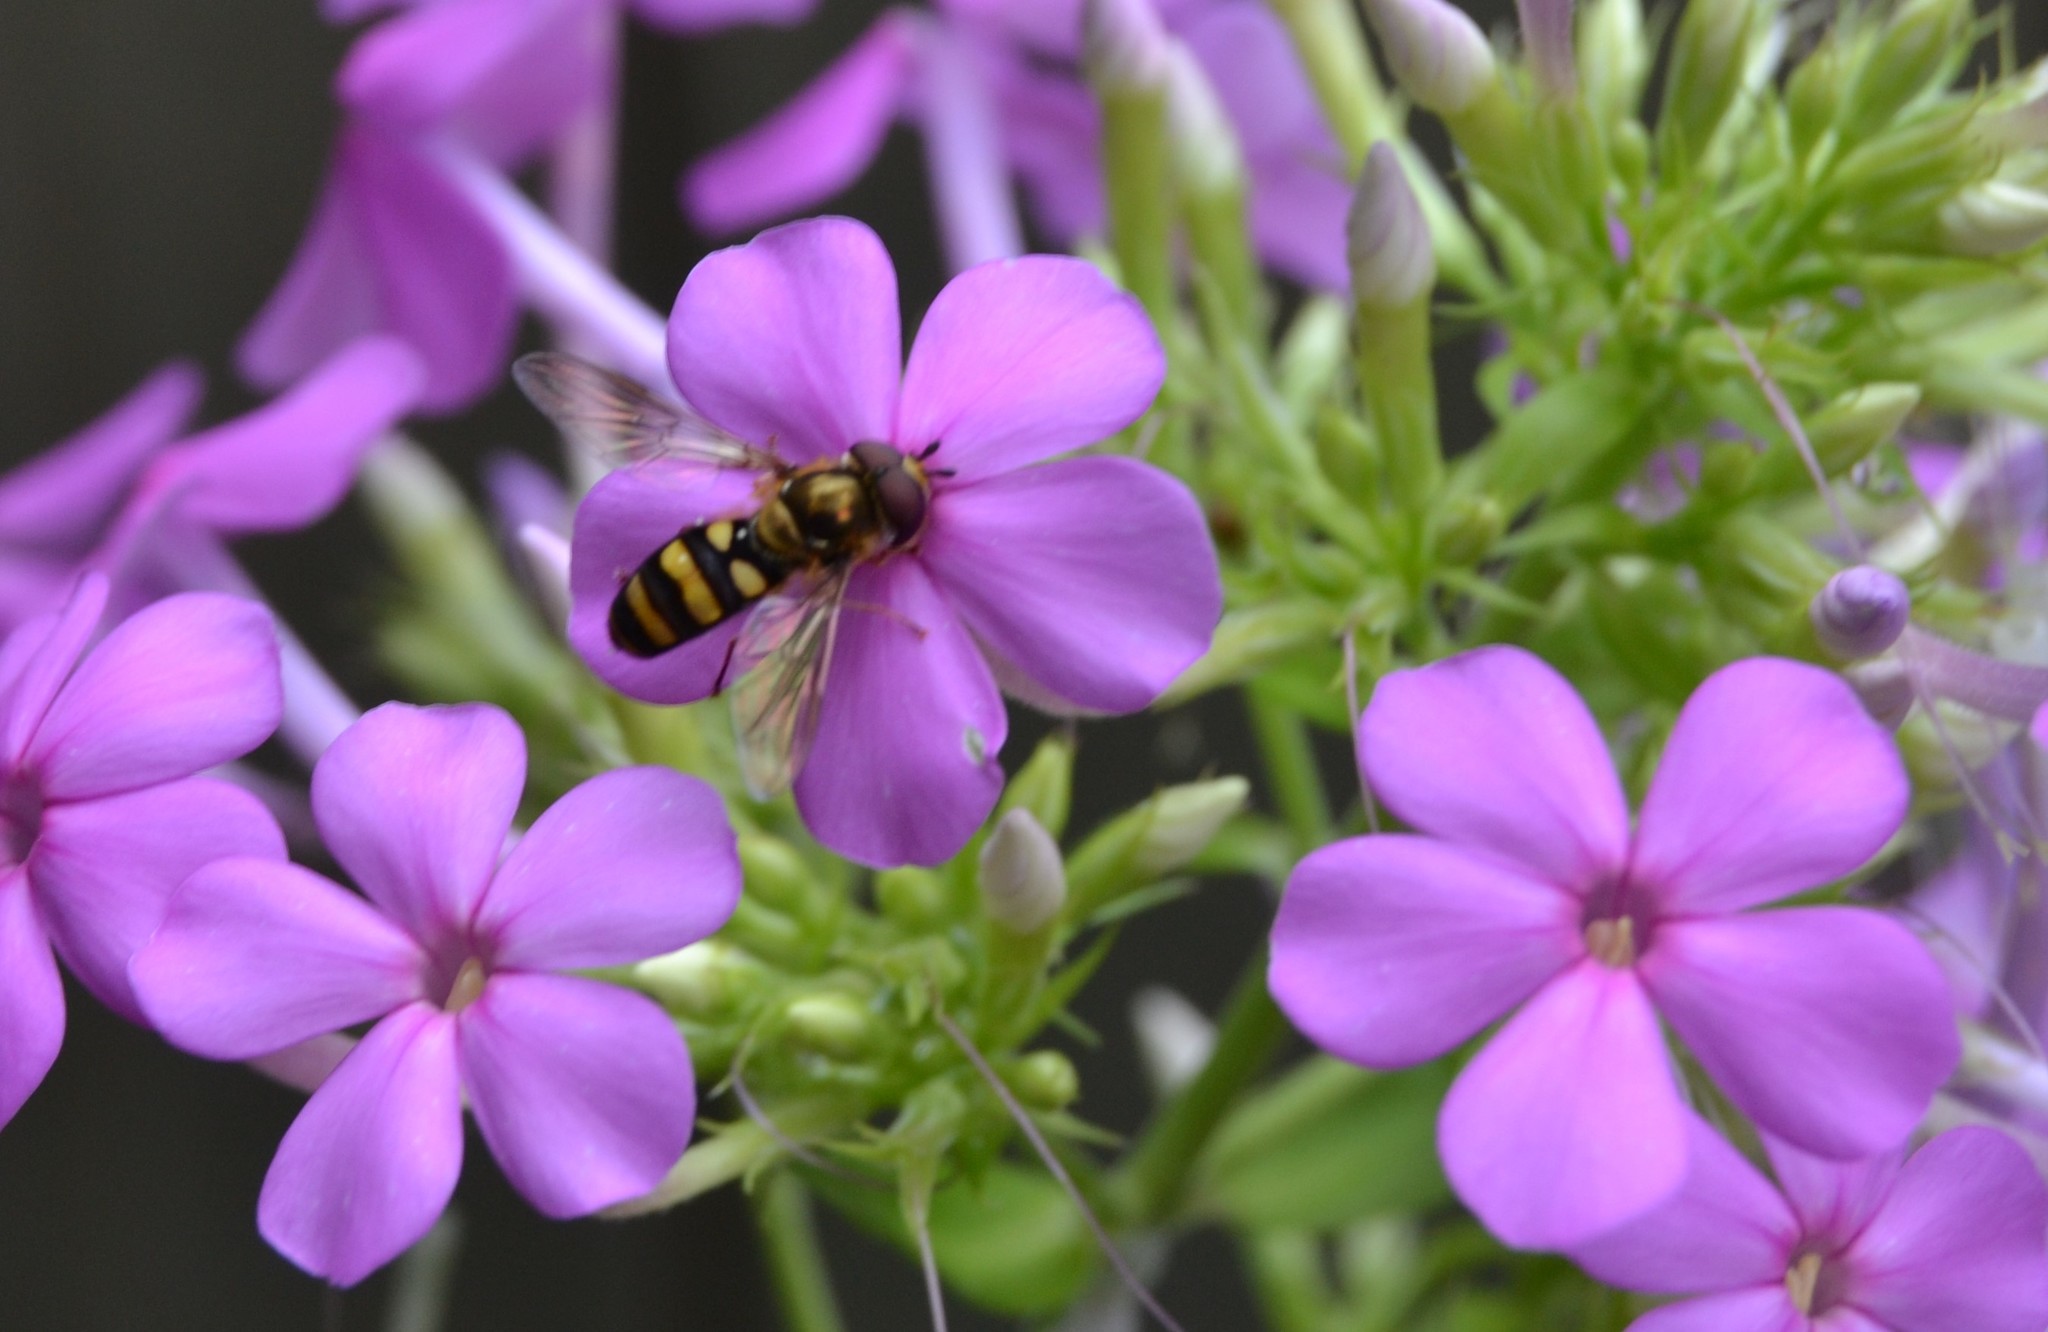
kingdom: Animalia
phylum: Arthropoda
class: Insecta
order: Diptera
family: Syrphidae
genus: Eupeodes
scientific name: Eupeodes
